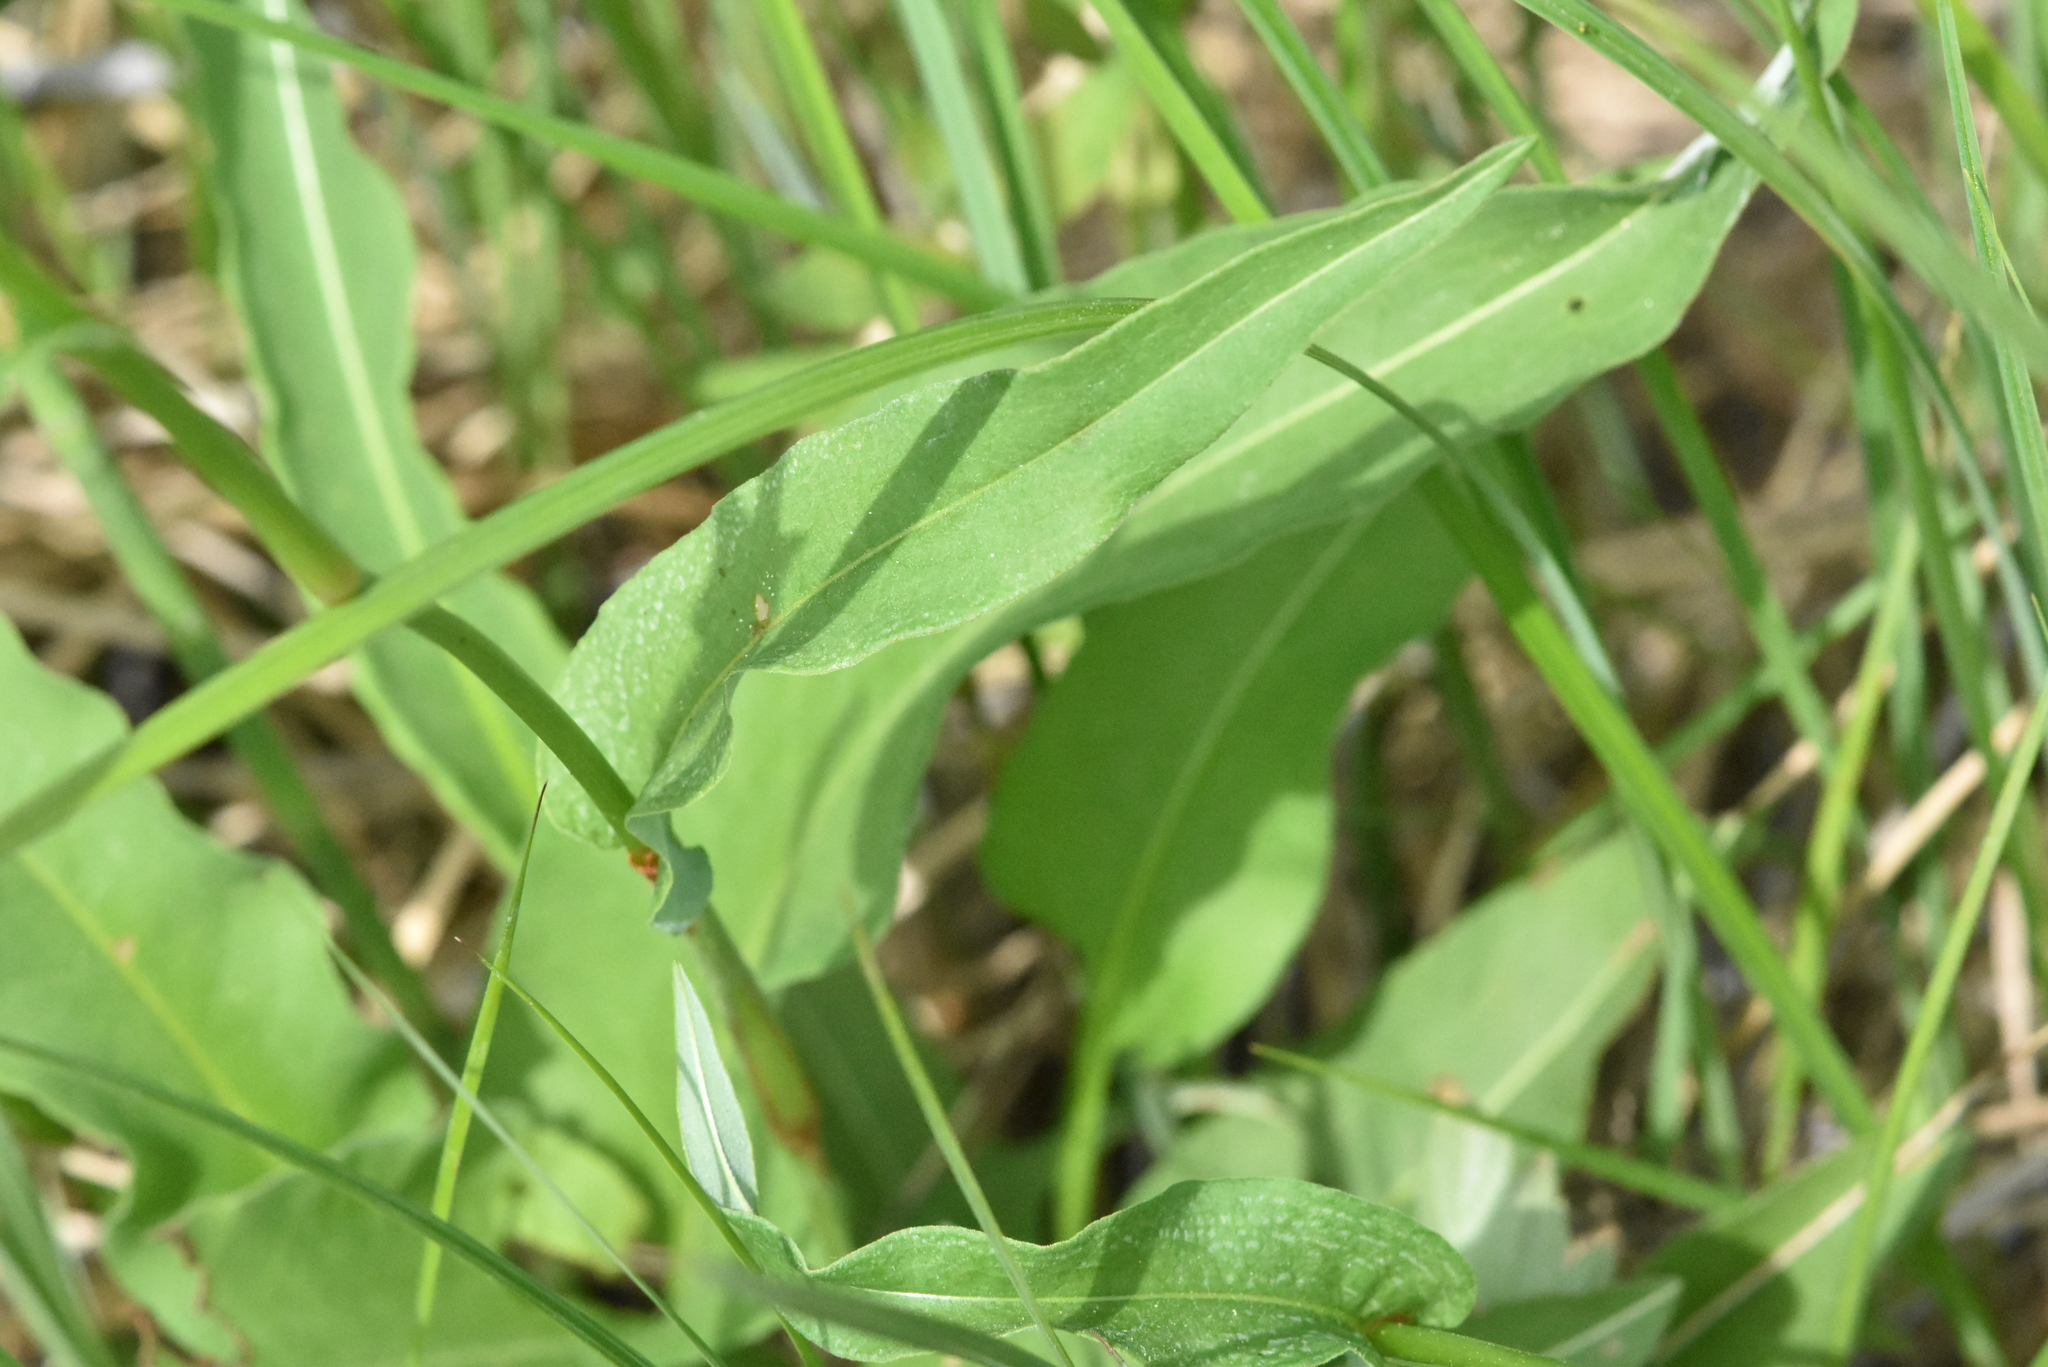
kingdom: Plantae
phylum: Tracheophyta
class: Magnoliopsida
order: Caryophyllales
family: Polygonaceae
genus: Bistorta
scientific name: Bistorta officinalis
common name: Common bistort
